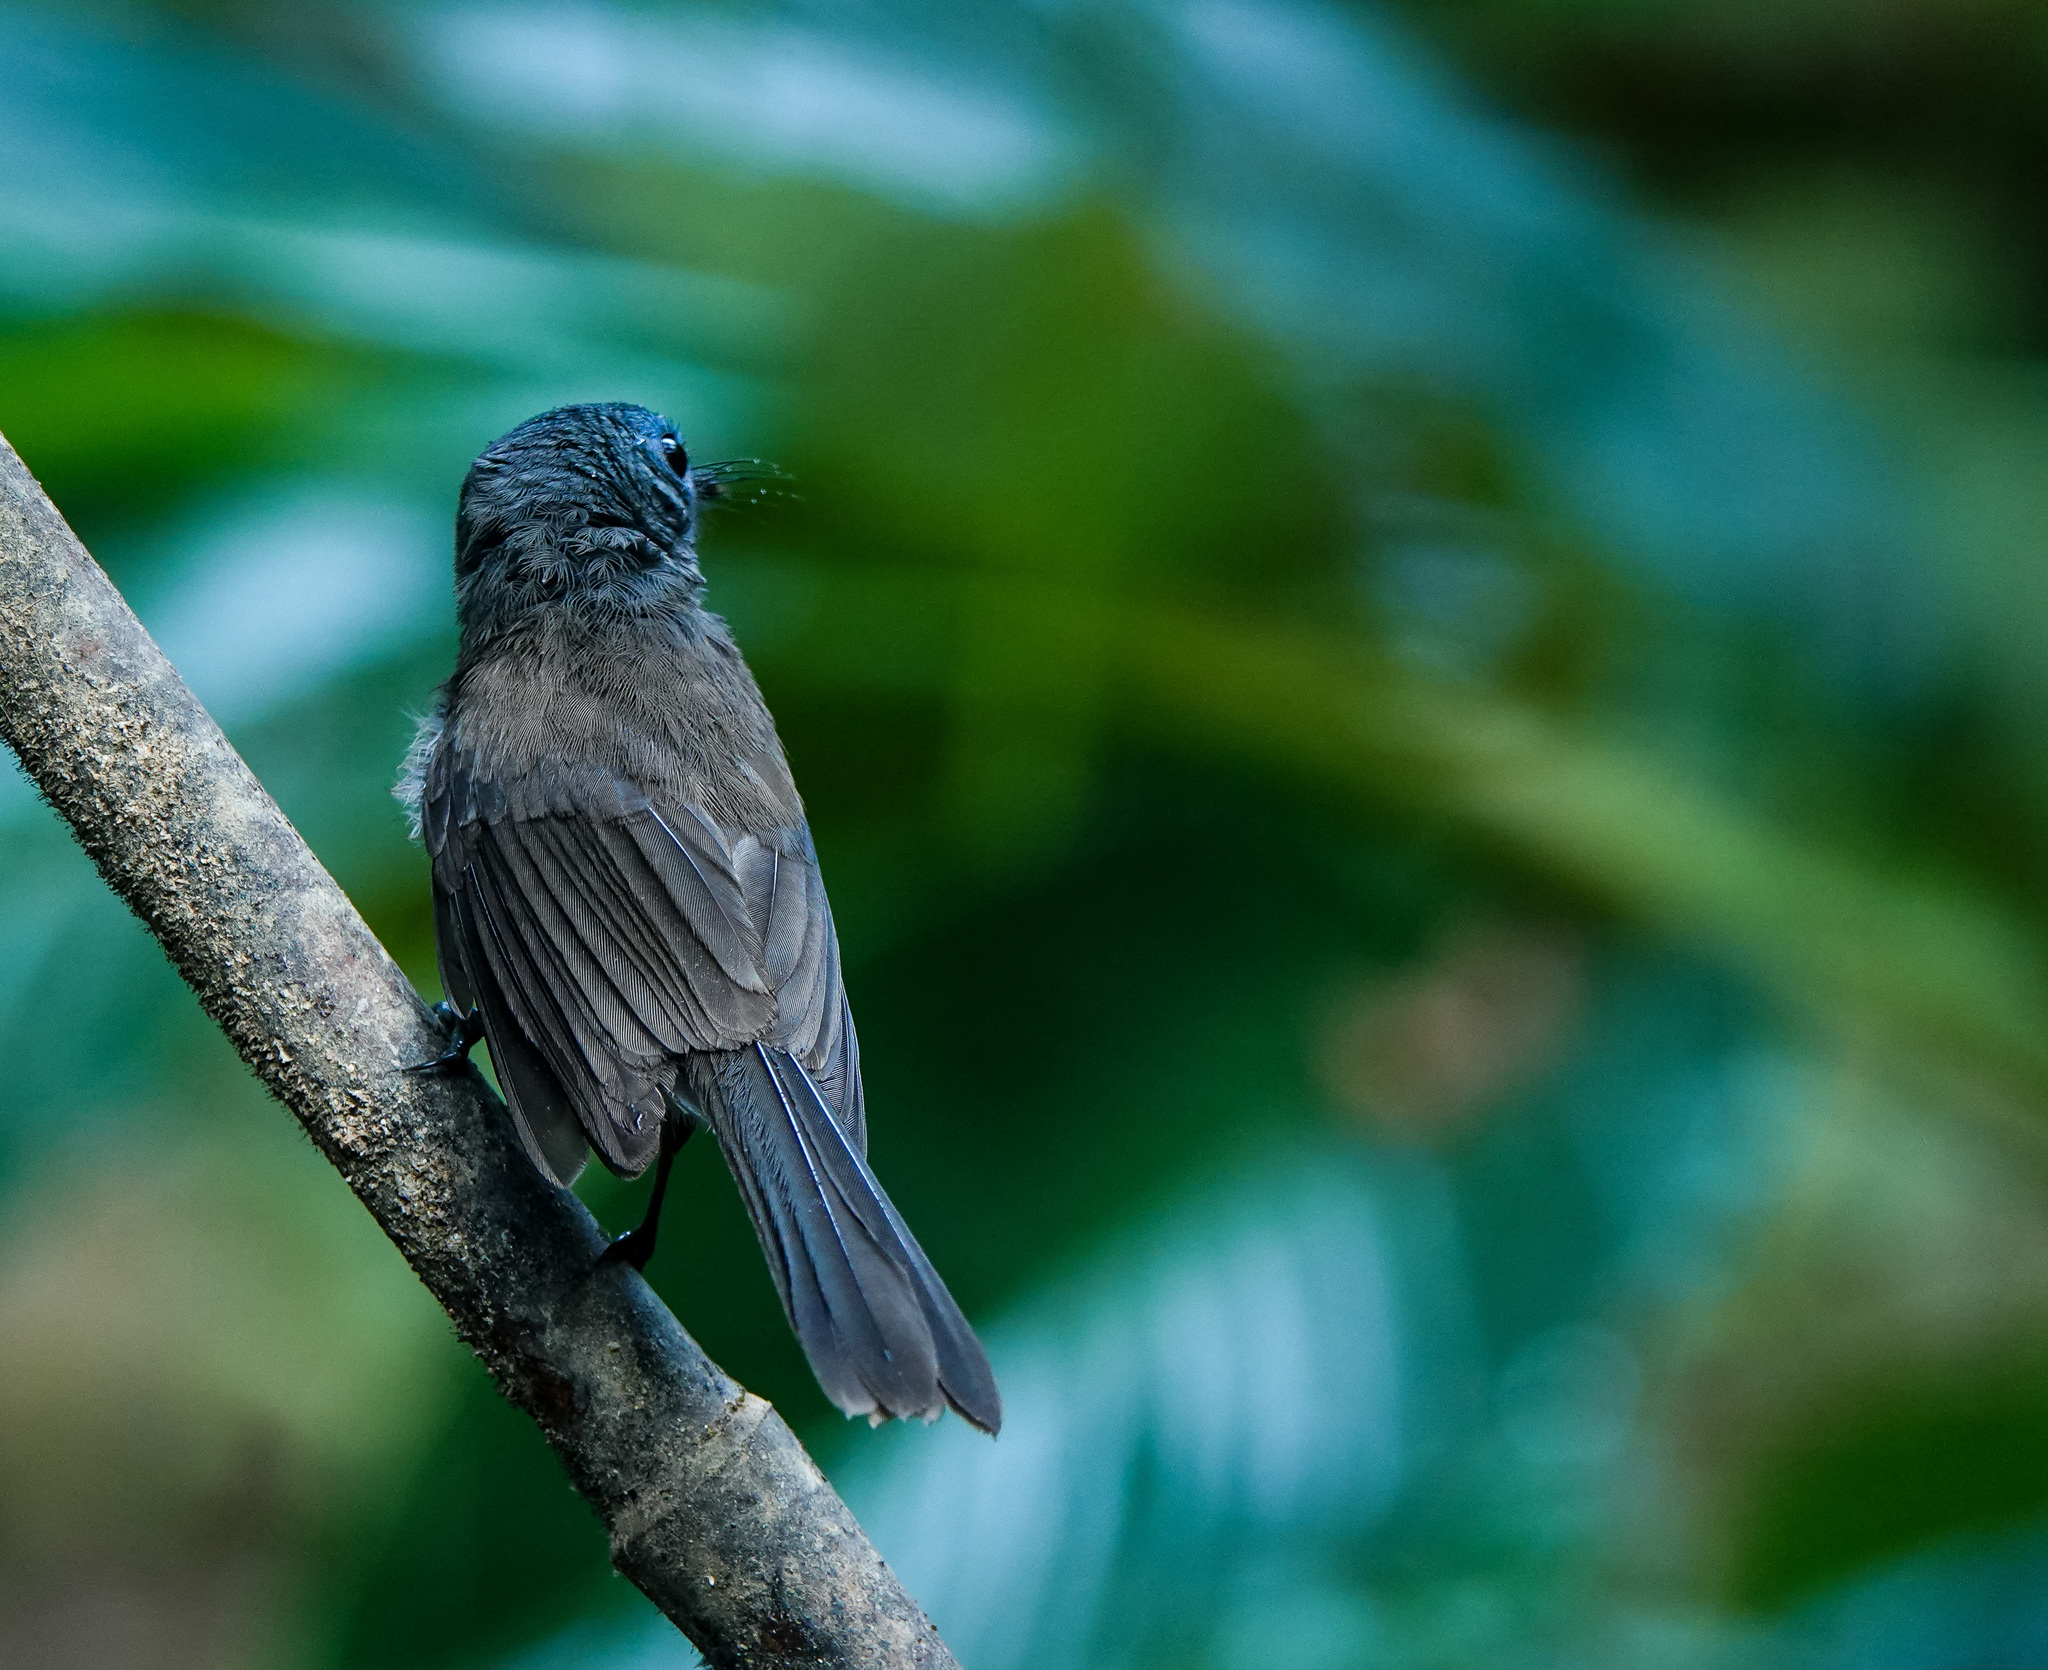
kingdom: Animalia
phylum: Chordata
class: Aves
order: Passeriformes
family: Monarchidae
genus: Hypothymis
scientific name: Hypothymis azurea
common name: Black-naped monarch
